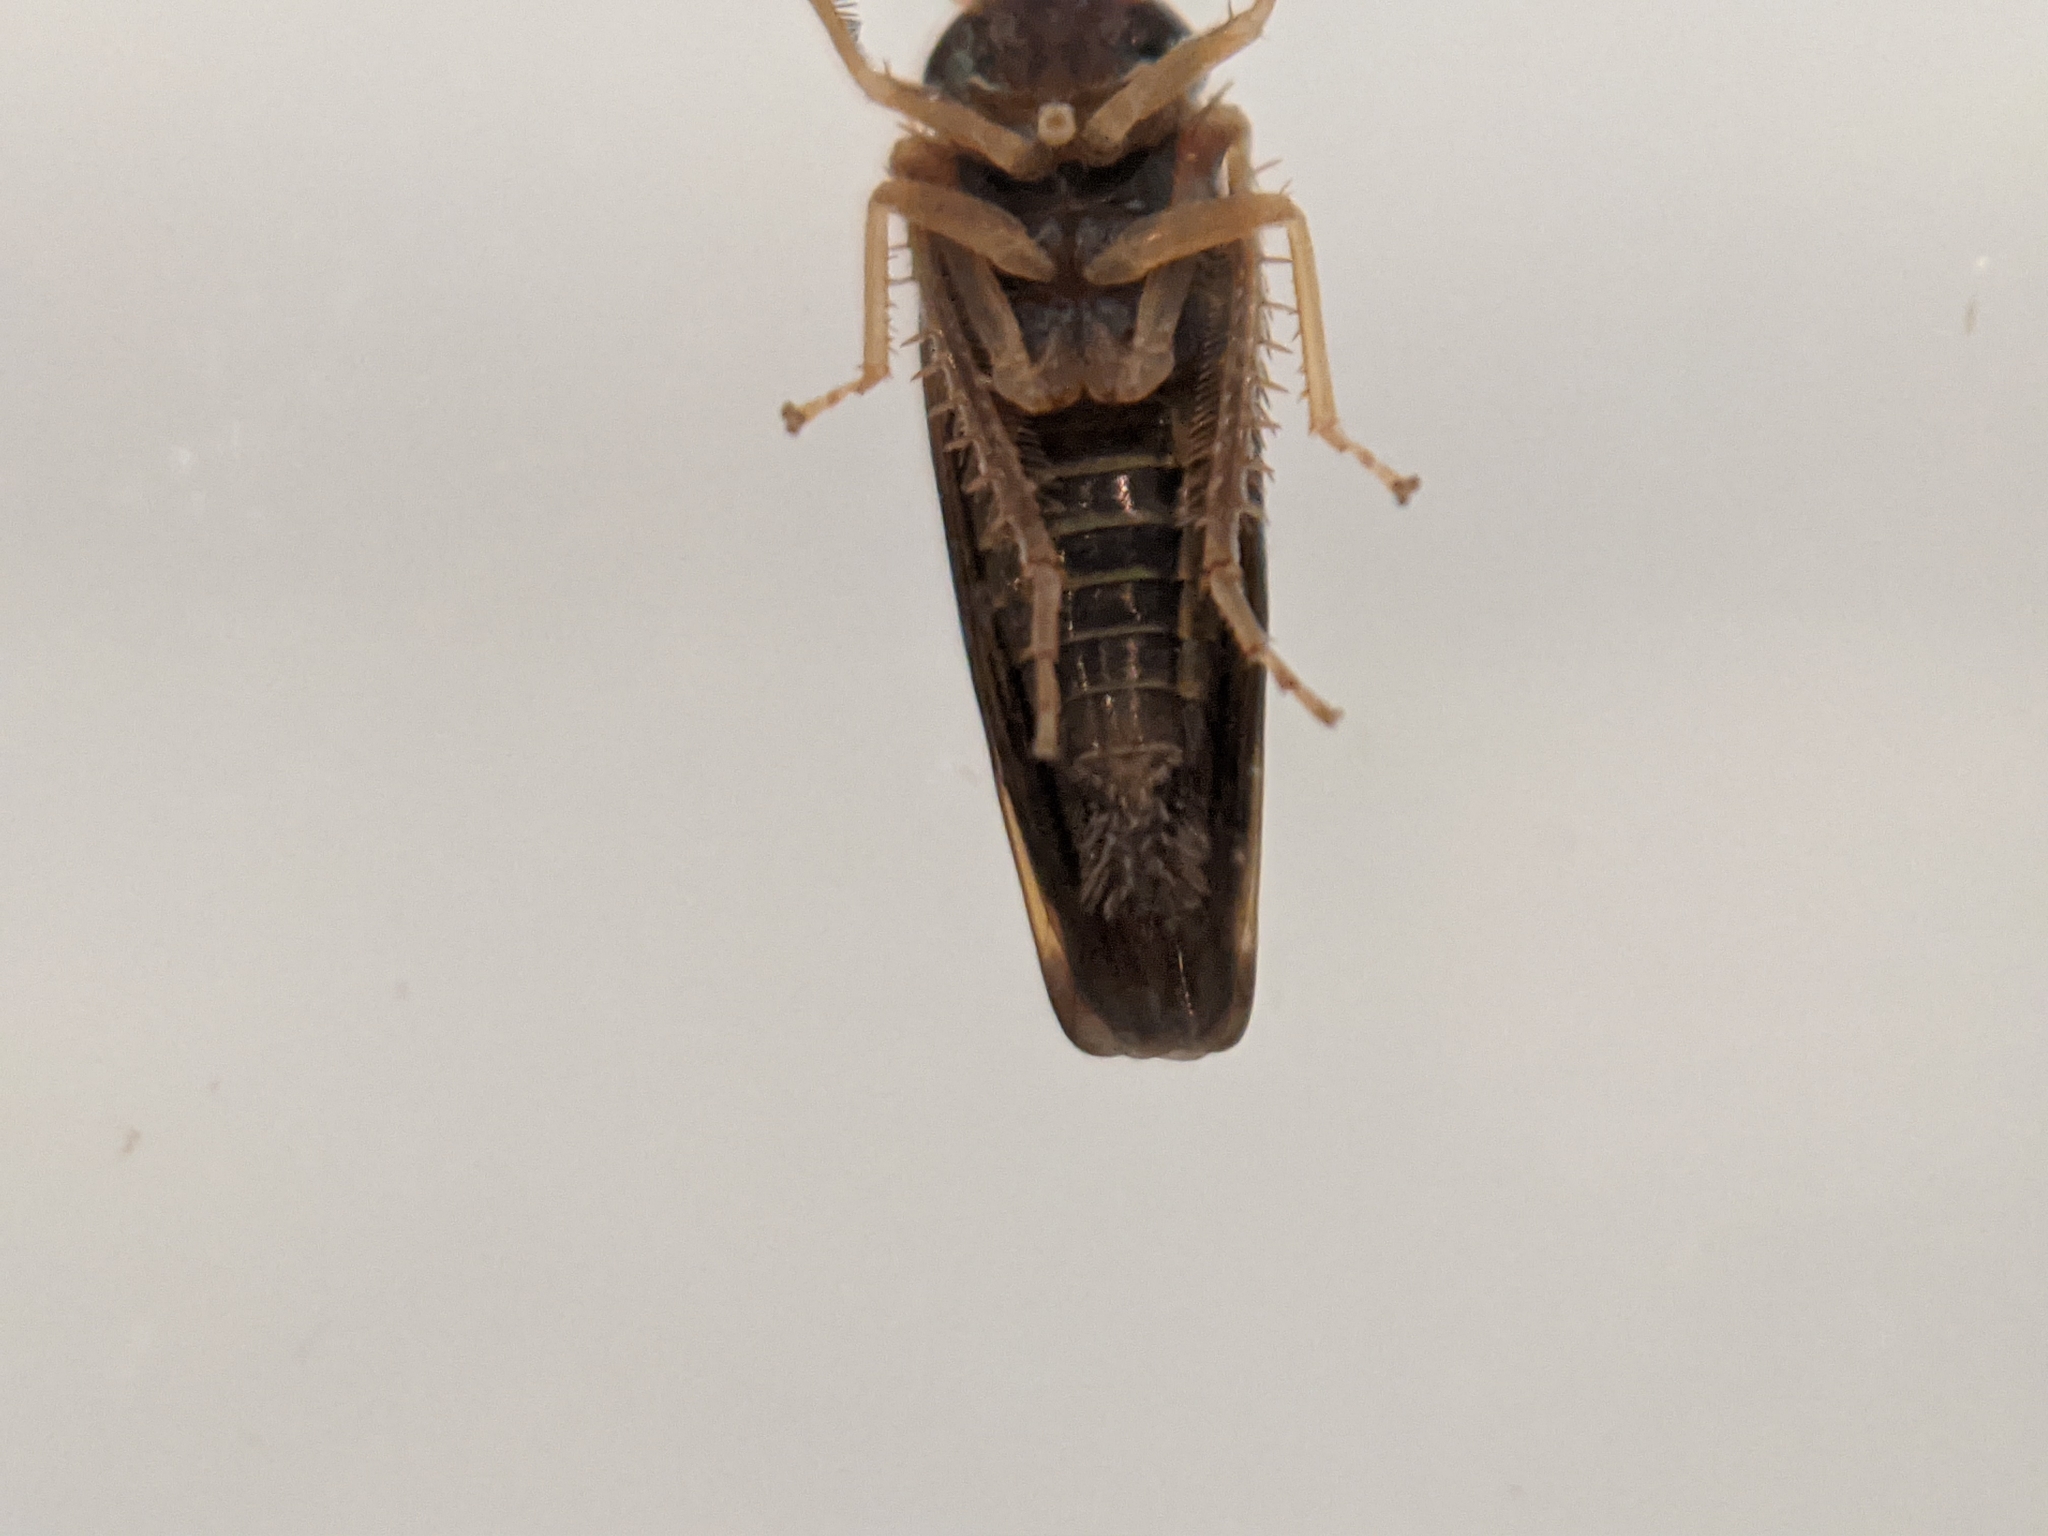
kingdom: Animalia
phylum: Arthropoda
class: Insecta
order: Hemiptera
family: Cicadellidae
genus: Tylozygus
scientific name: Tylozygus bifidus
